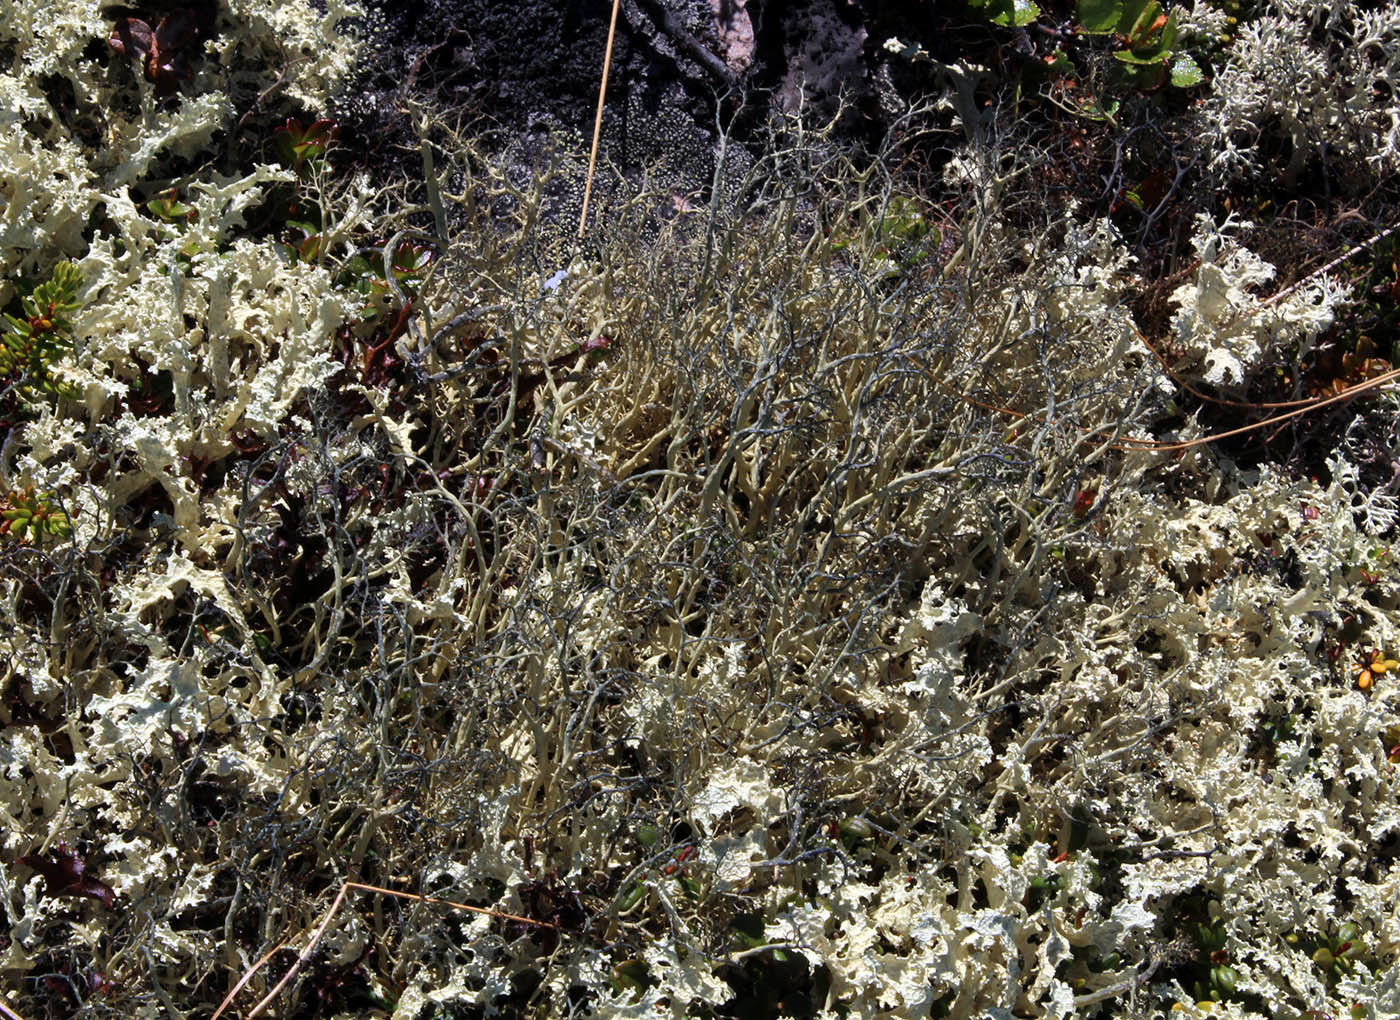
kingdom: Fungi
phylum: Ascomycota
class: Lecanoromycetes
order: Lecanorales
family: Parmeliaceae
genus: Gowardia
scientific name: Gowardia nigricans
